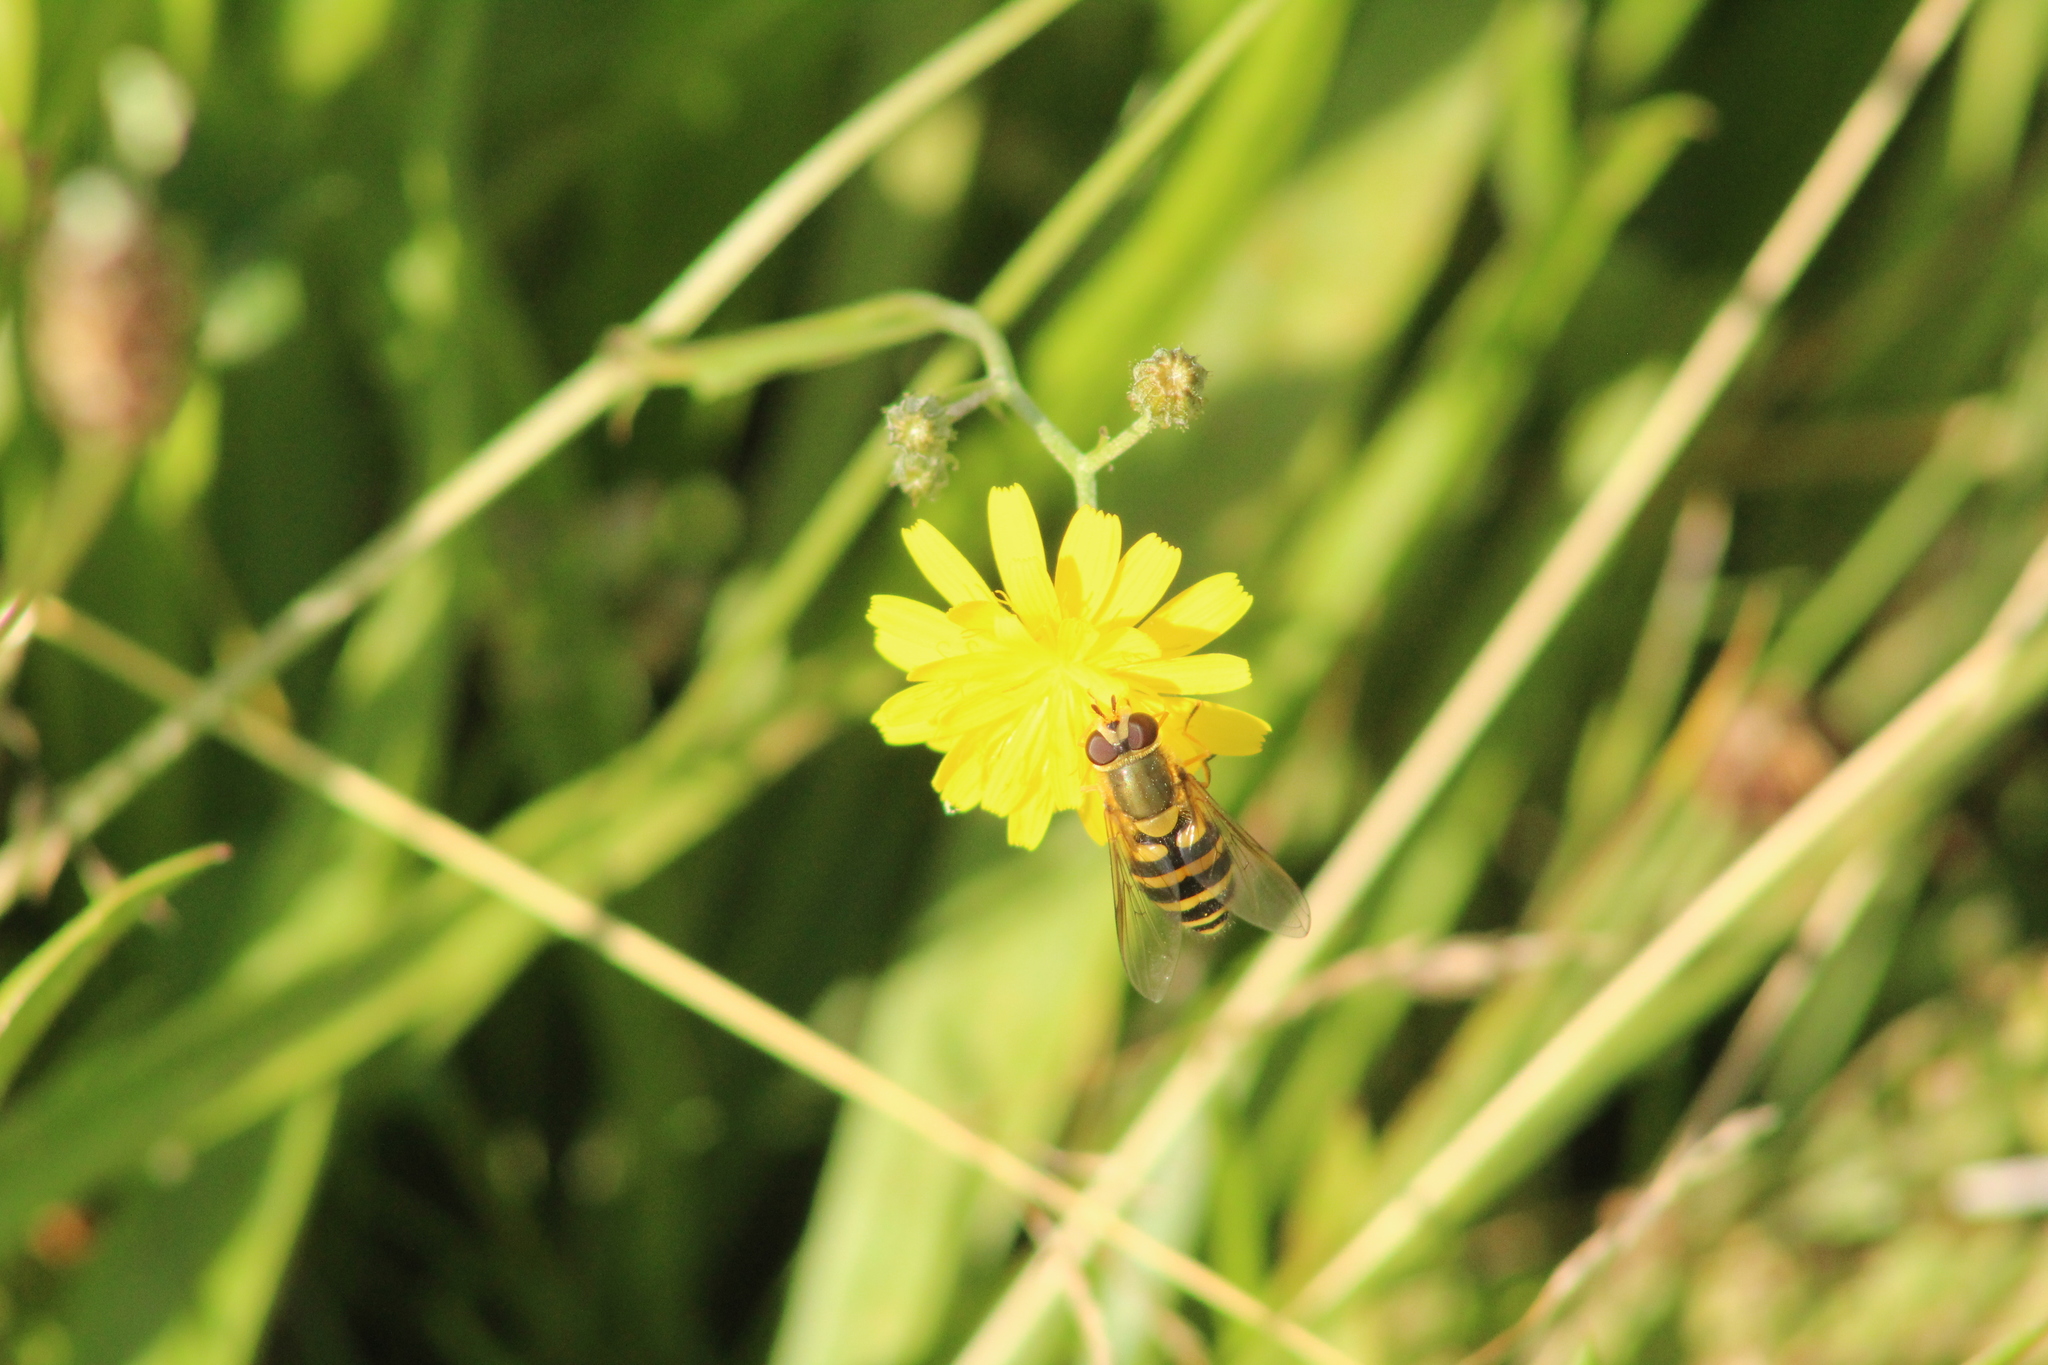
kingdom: Animalia
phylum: Arthropoda
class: Insecta
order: Diptera
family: Syrphidae
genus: Syrphus
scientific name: Syrphus
